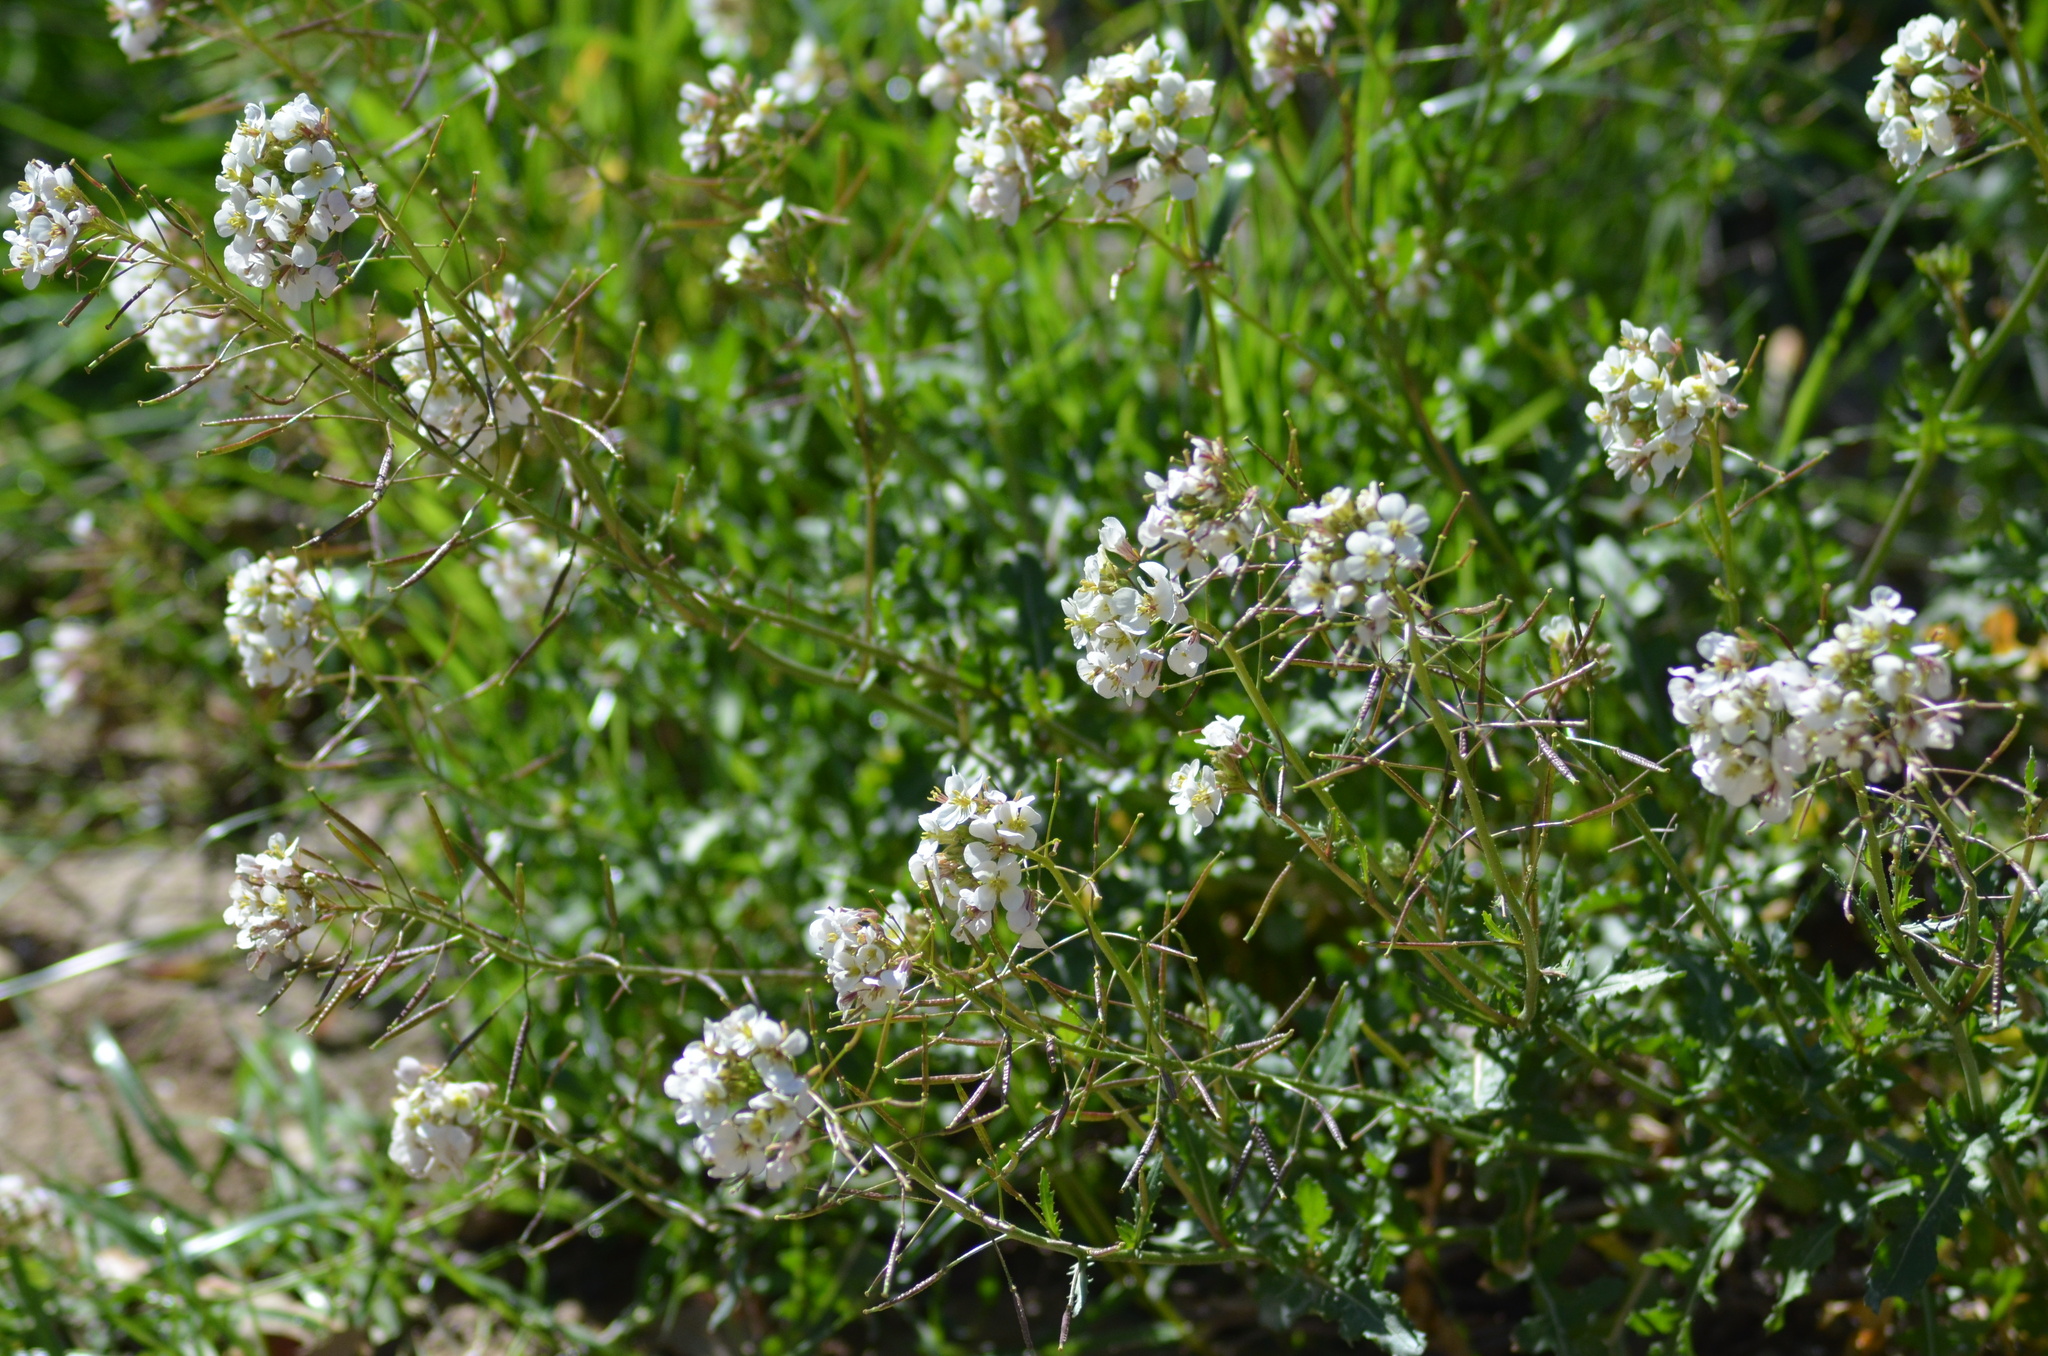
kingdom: Plantae
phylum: Tracheophyta
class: Magnoliopsida
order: Brassicales
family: Brassicaceae
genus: Diplotaxis
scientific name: Diplotaxis erucoides
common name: White rocket
